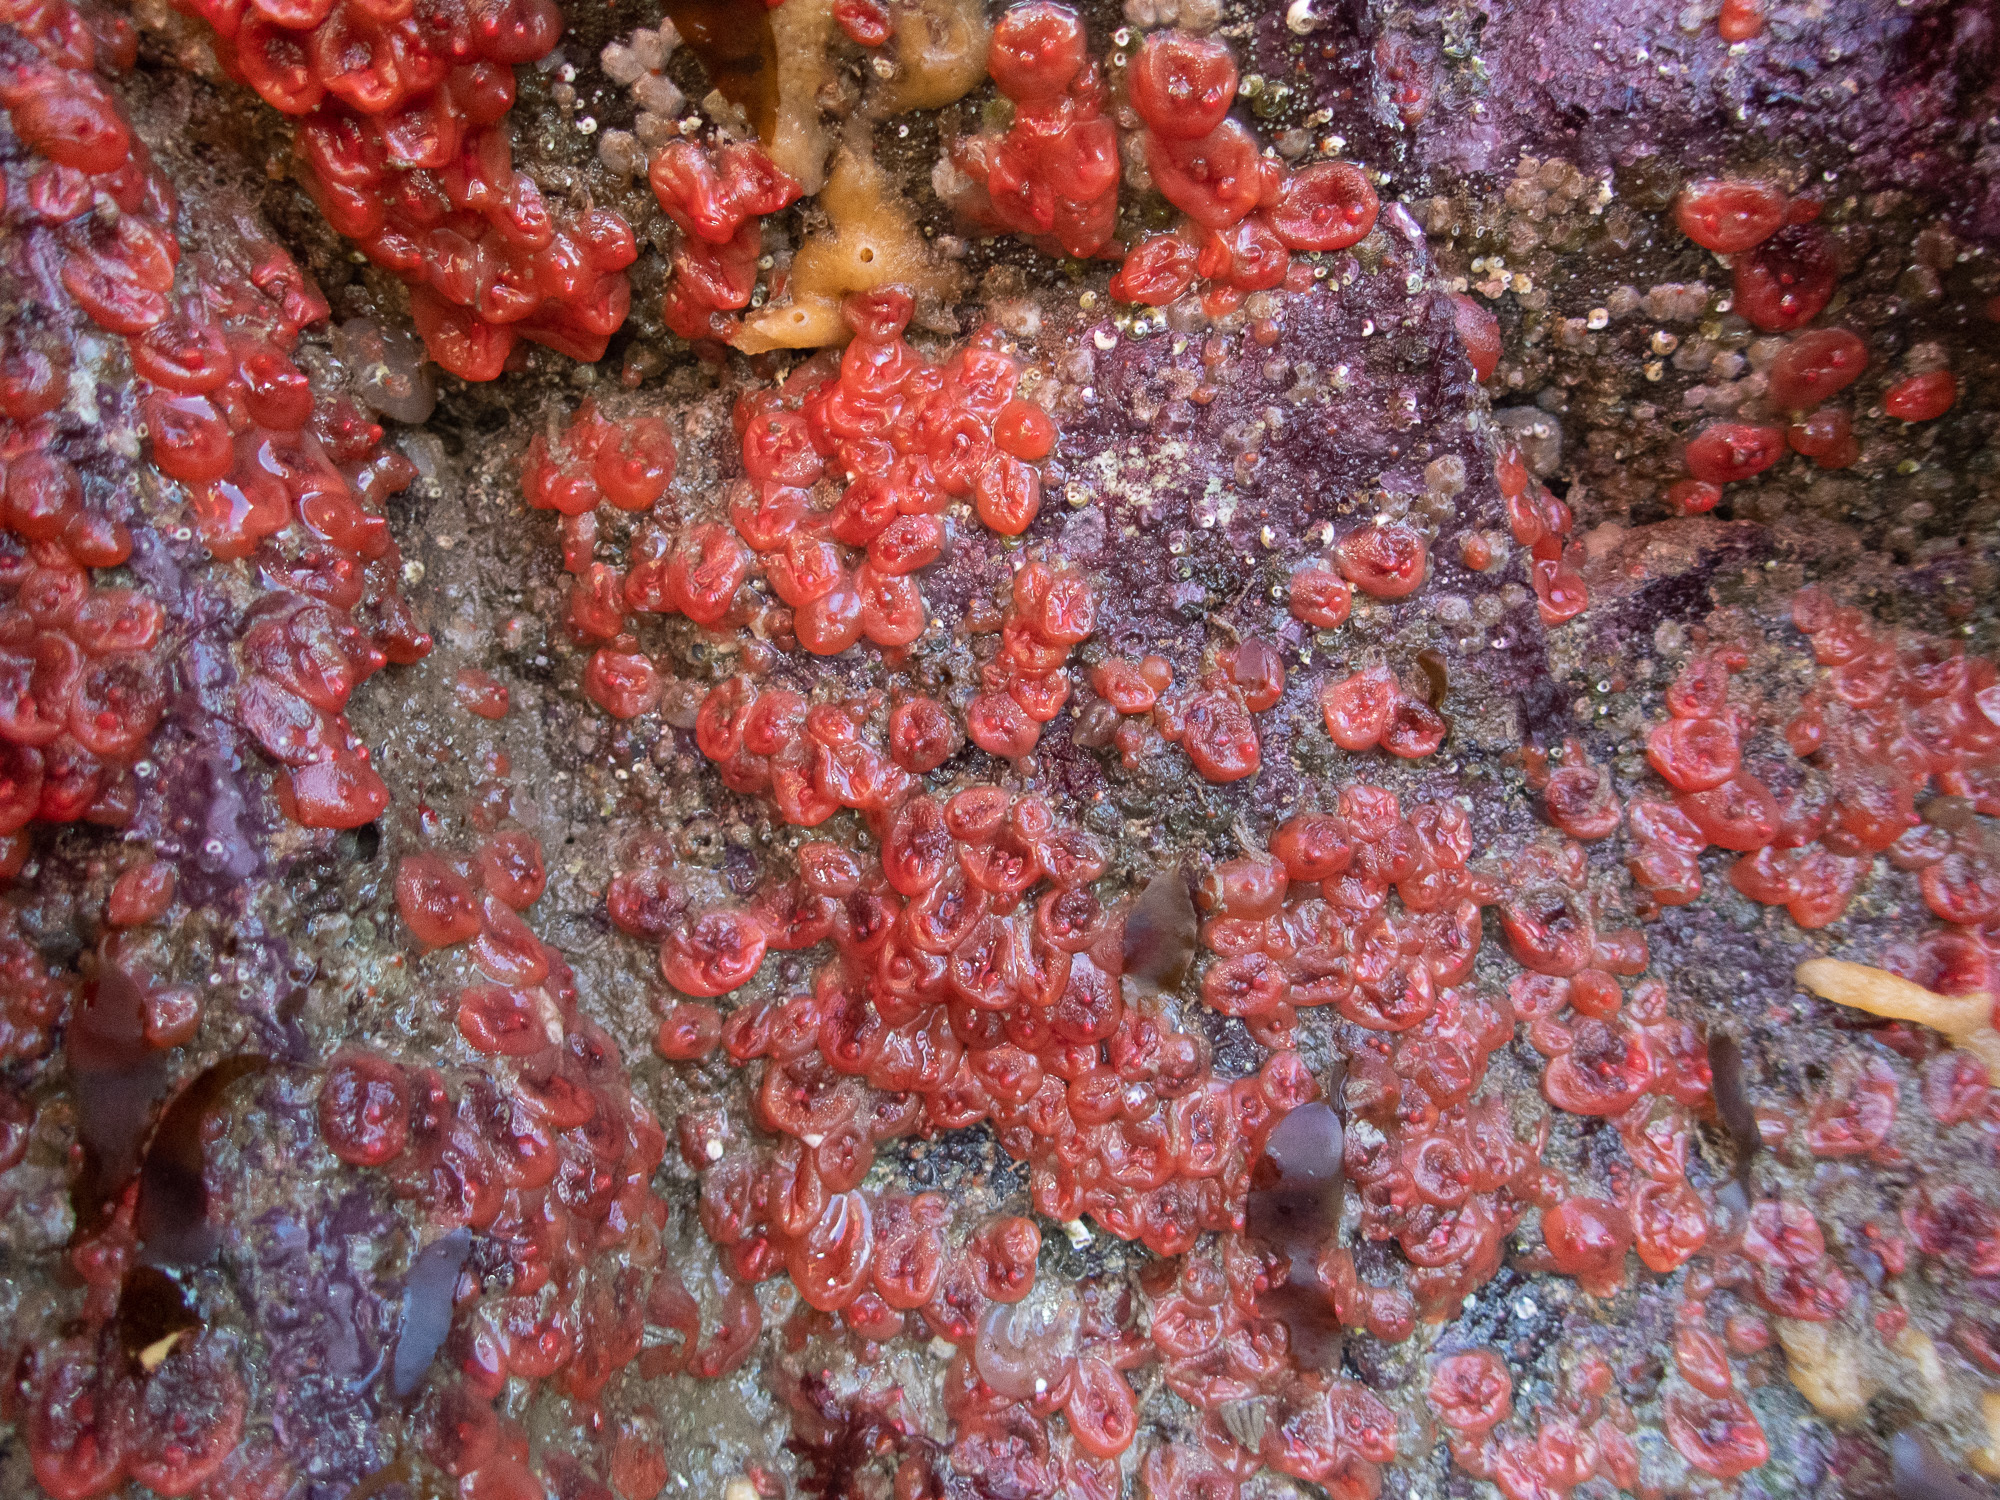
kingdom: Animalia
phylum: Chordata
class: Ascidiacea
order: Stolidobranchia
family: Styelidae
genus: Dendrodoa
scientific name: Dendrodoa grossularia
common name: Baked bean ascidian
